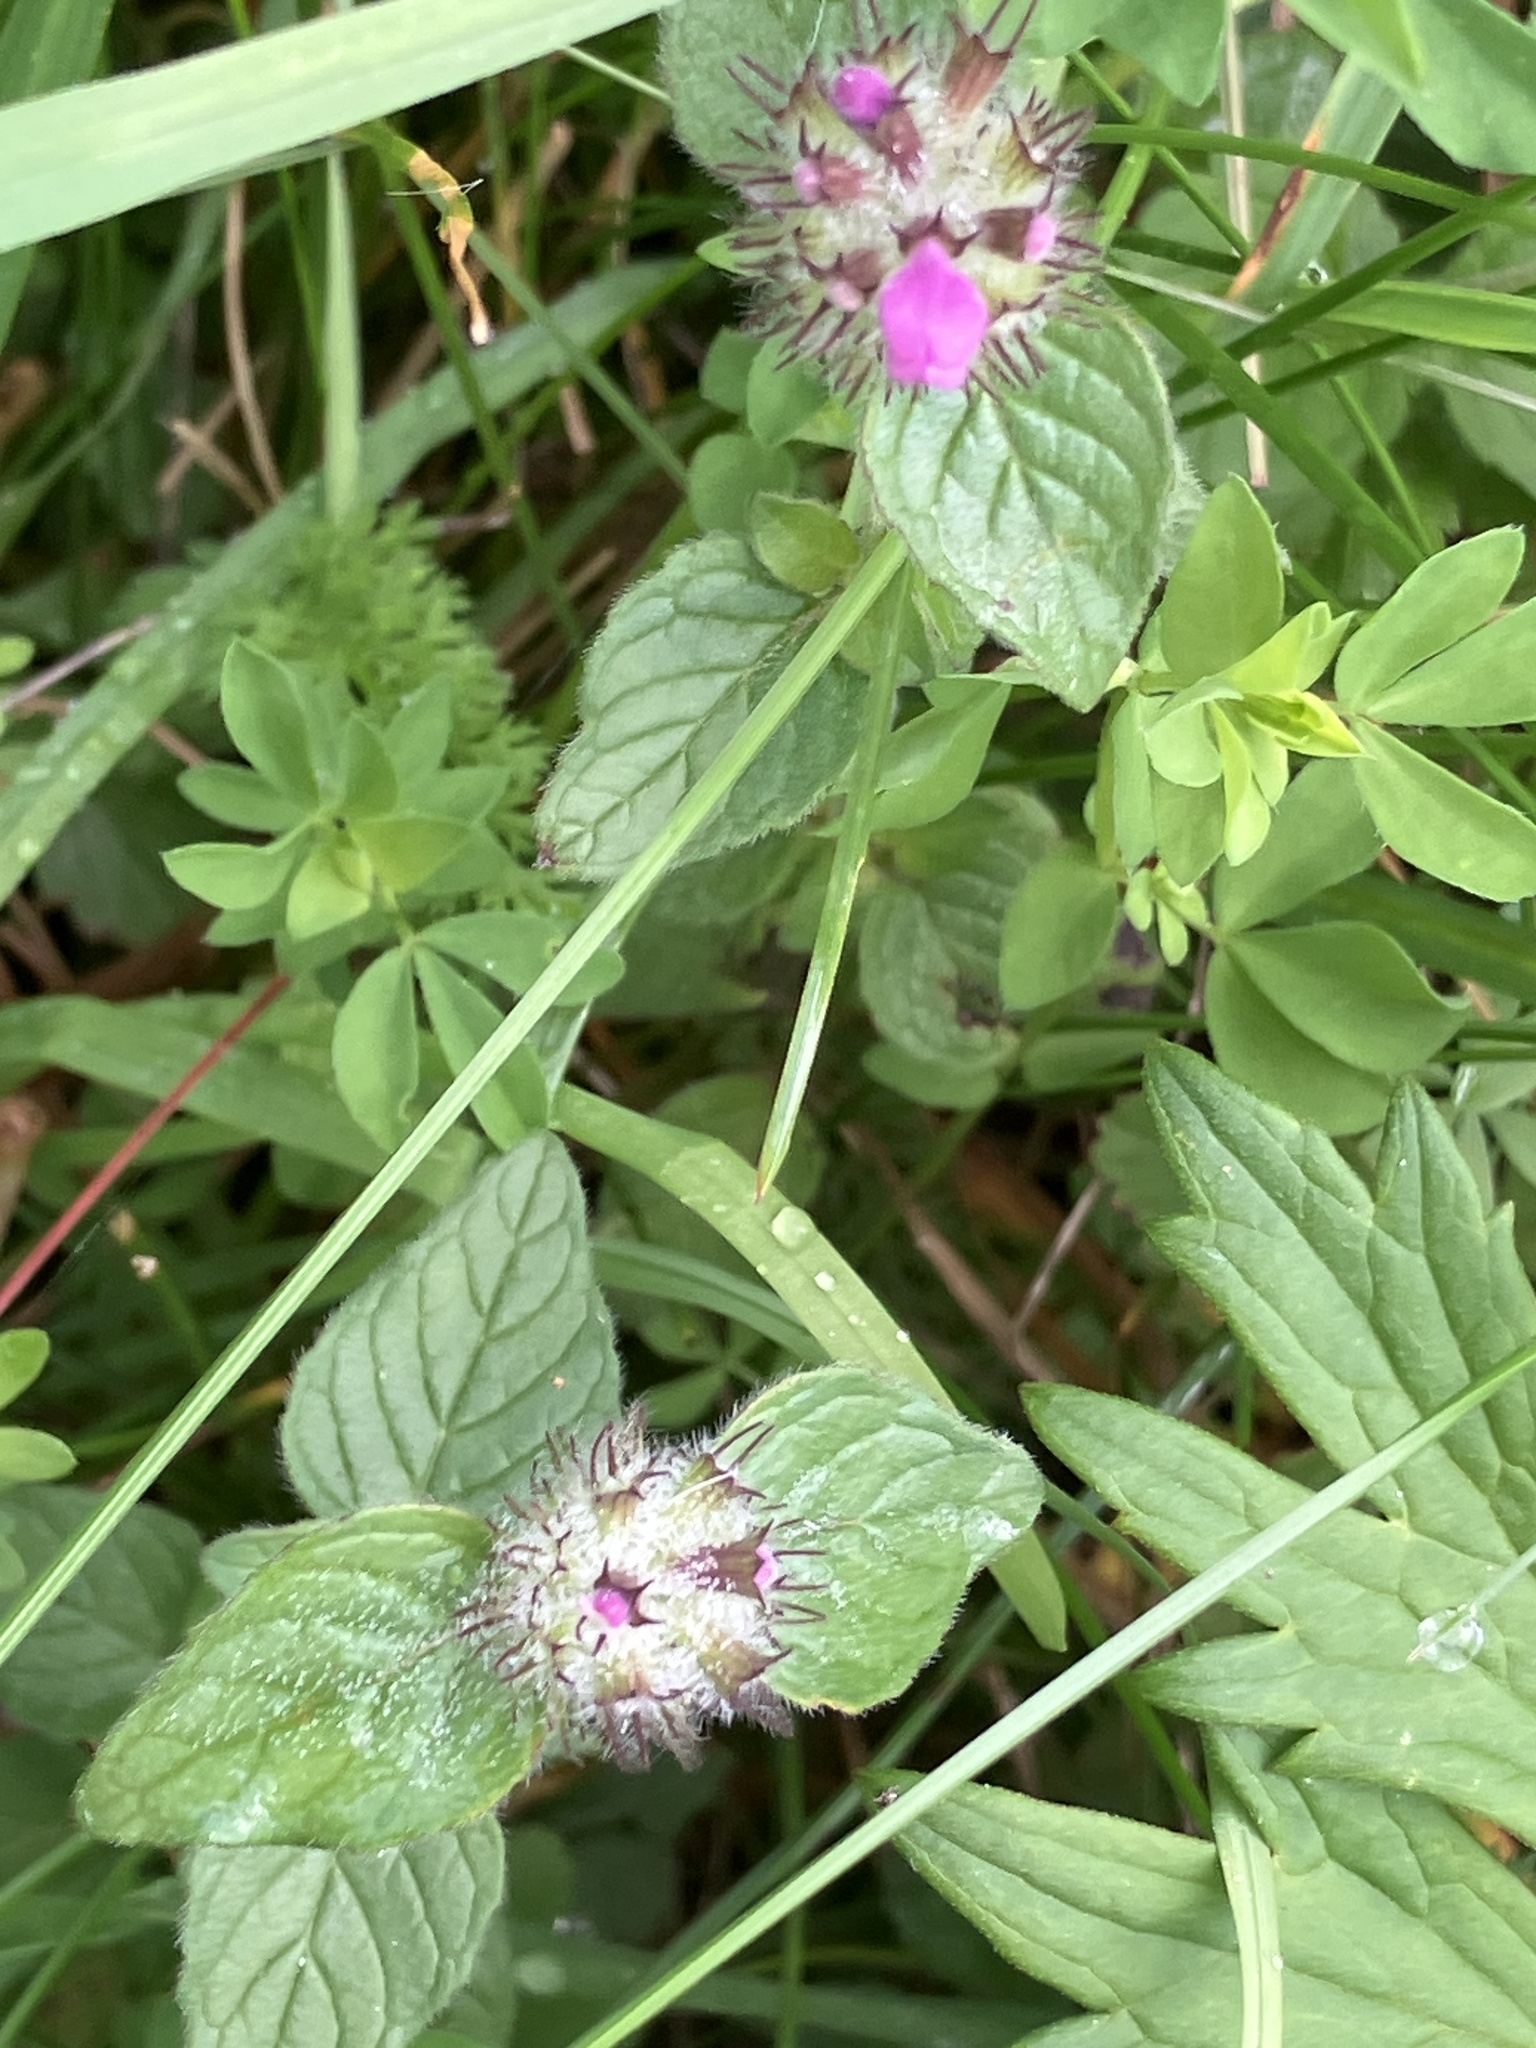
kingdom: Plantae
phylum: Tracheophyta
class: Magnoliopsida
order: Lamiales
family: Lamiaceae
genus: Clinopodium
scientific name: Clinopodium vulgare
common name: Wild basil
